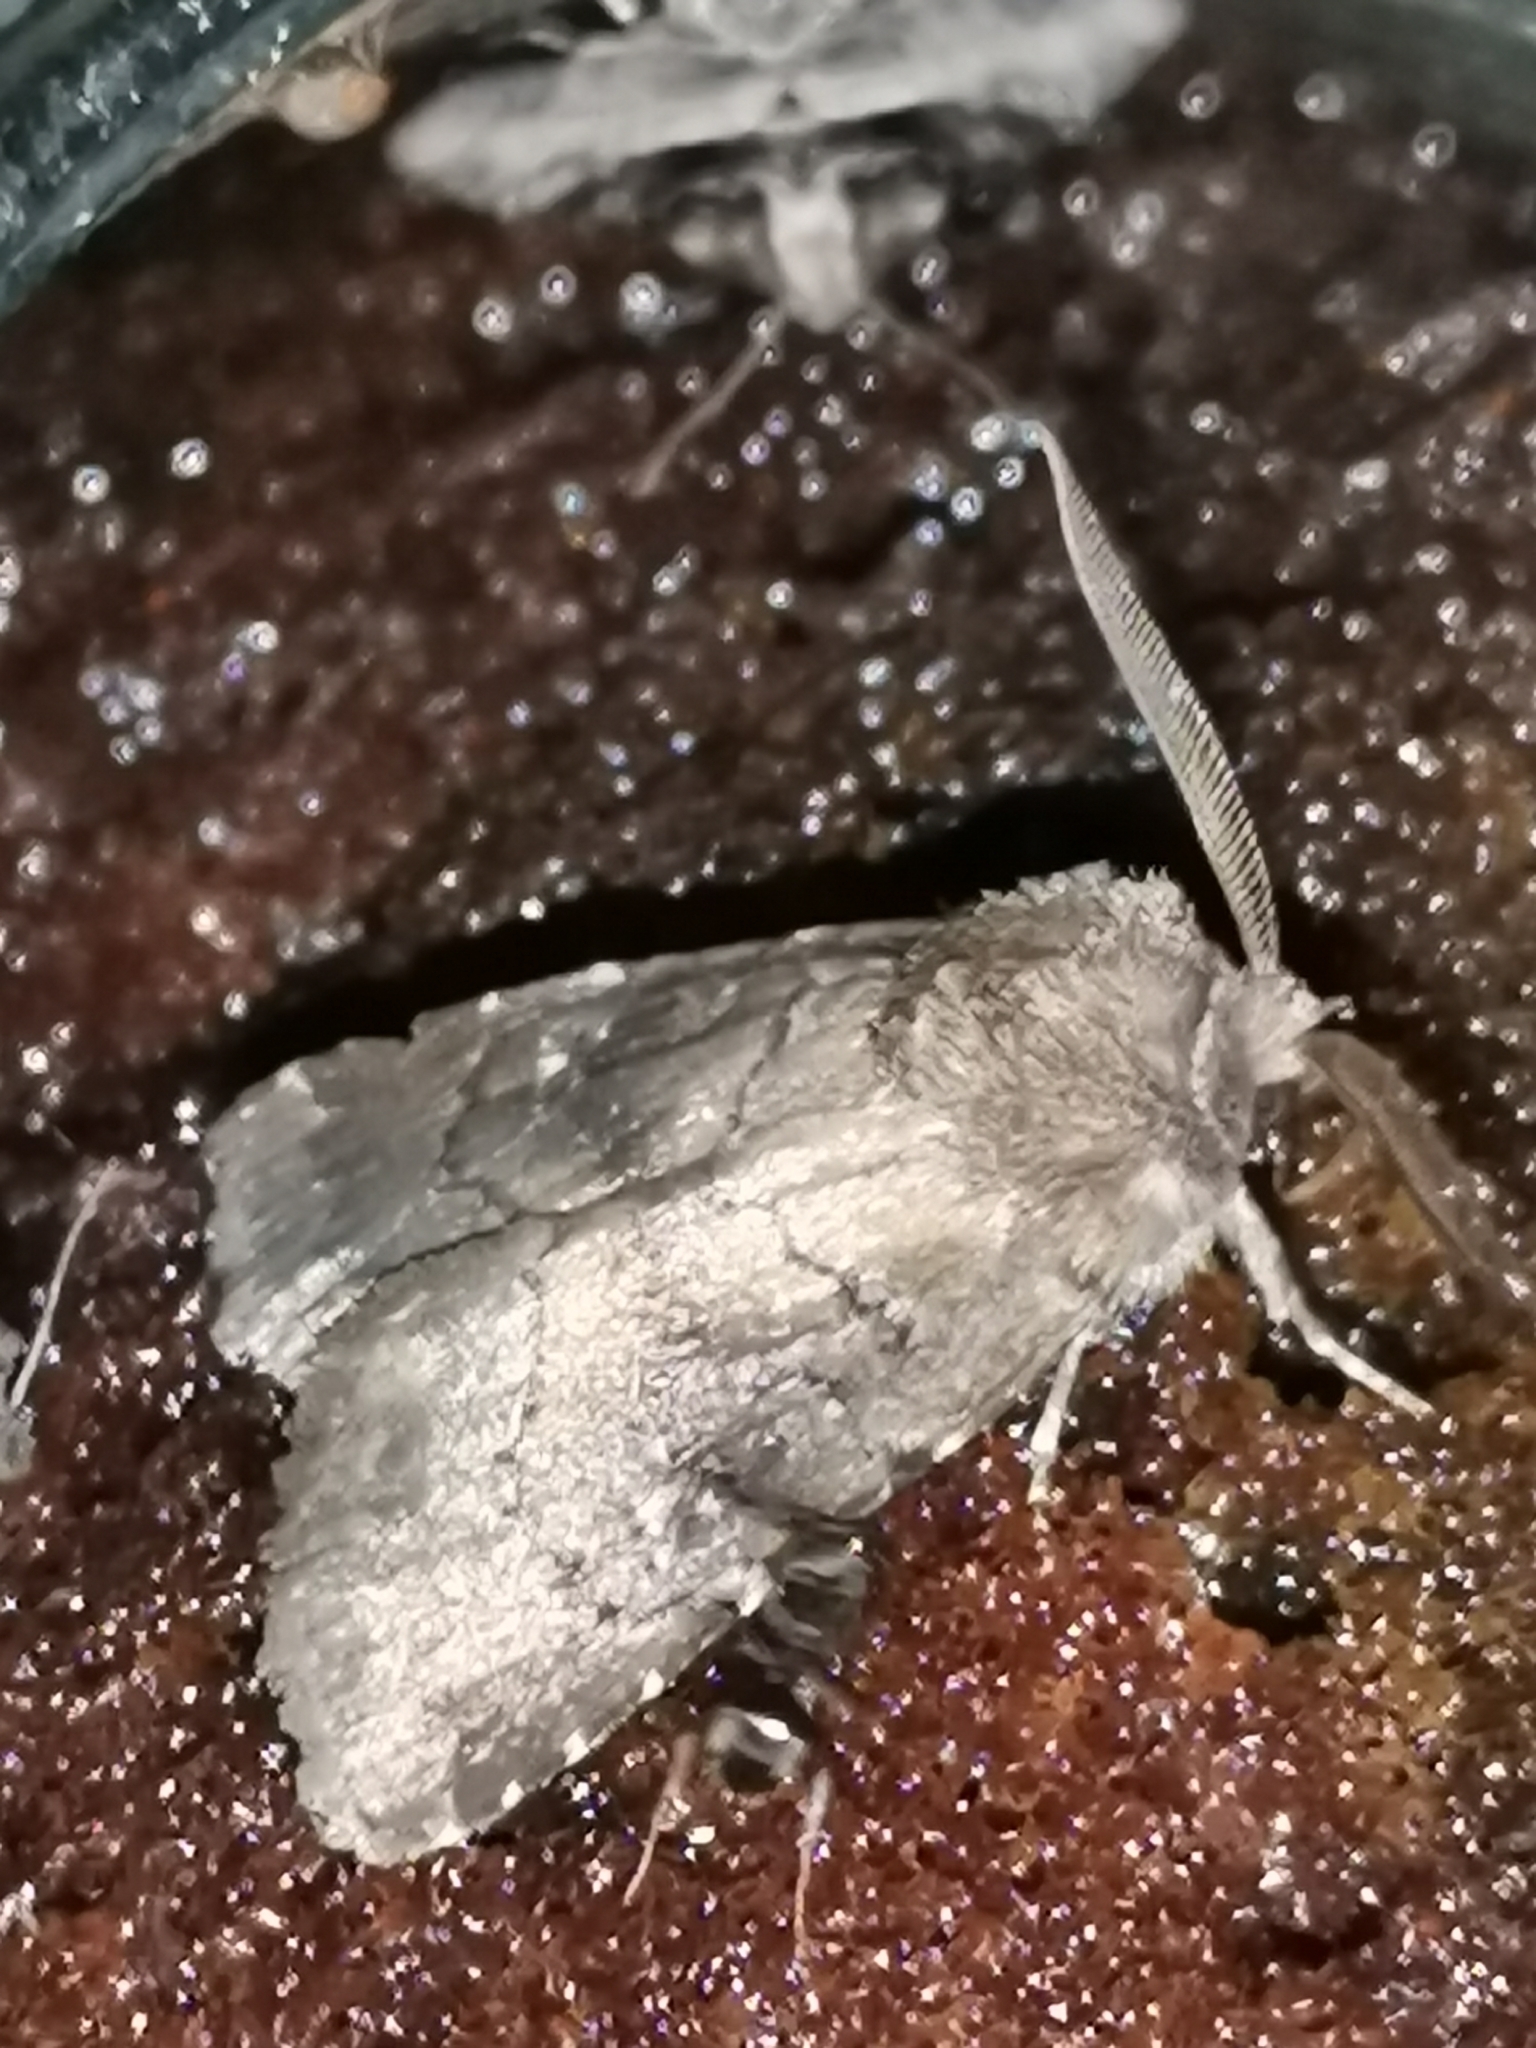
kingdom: Animalia
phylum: Arthropoda
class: Insecta
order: Lepidoptera
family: Noctuidae
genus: Charanyca
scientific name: Charanyca ferruginea
